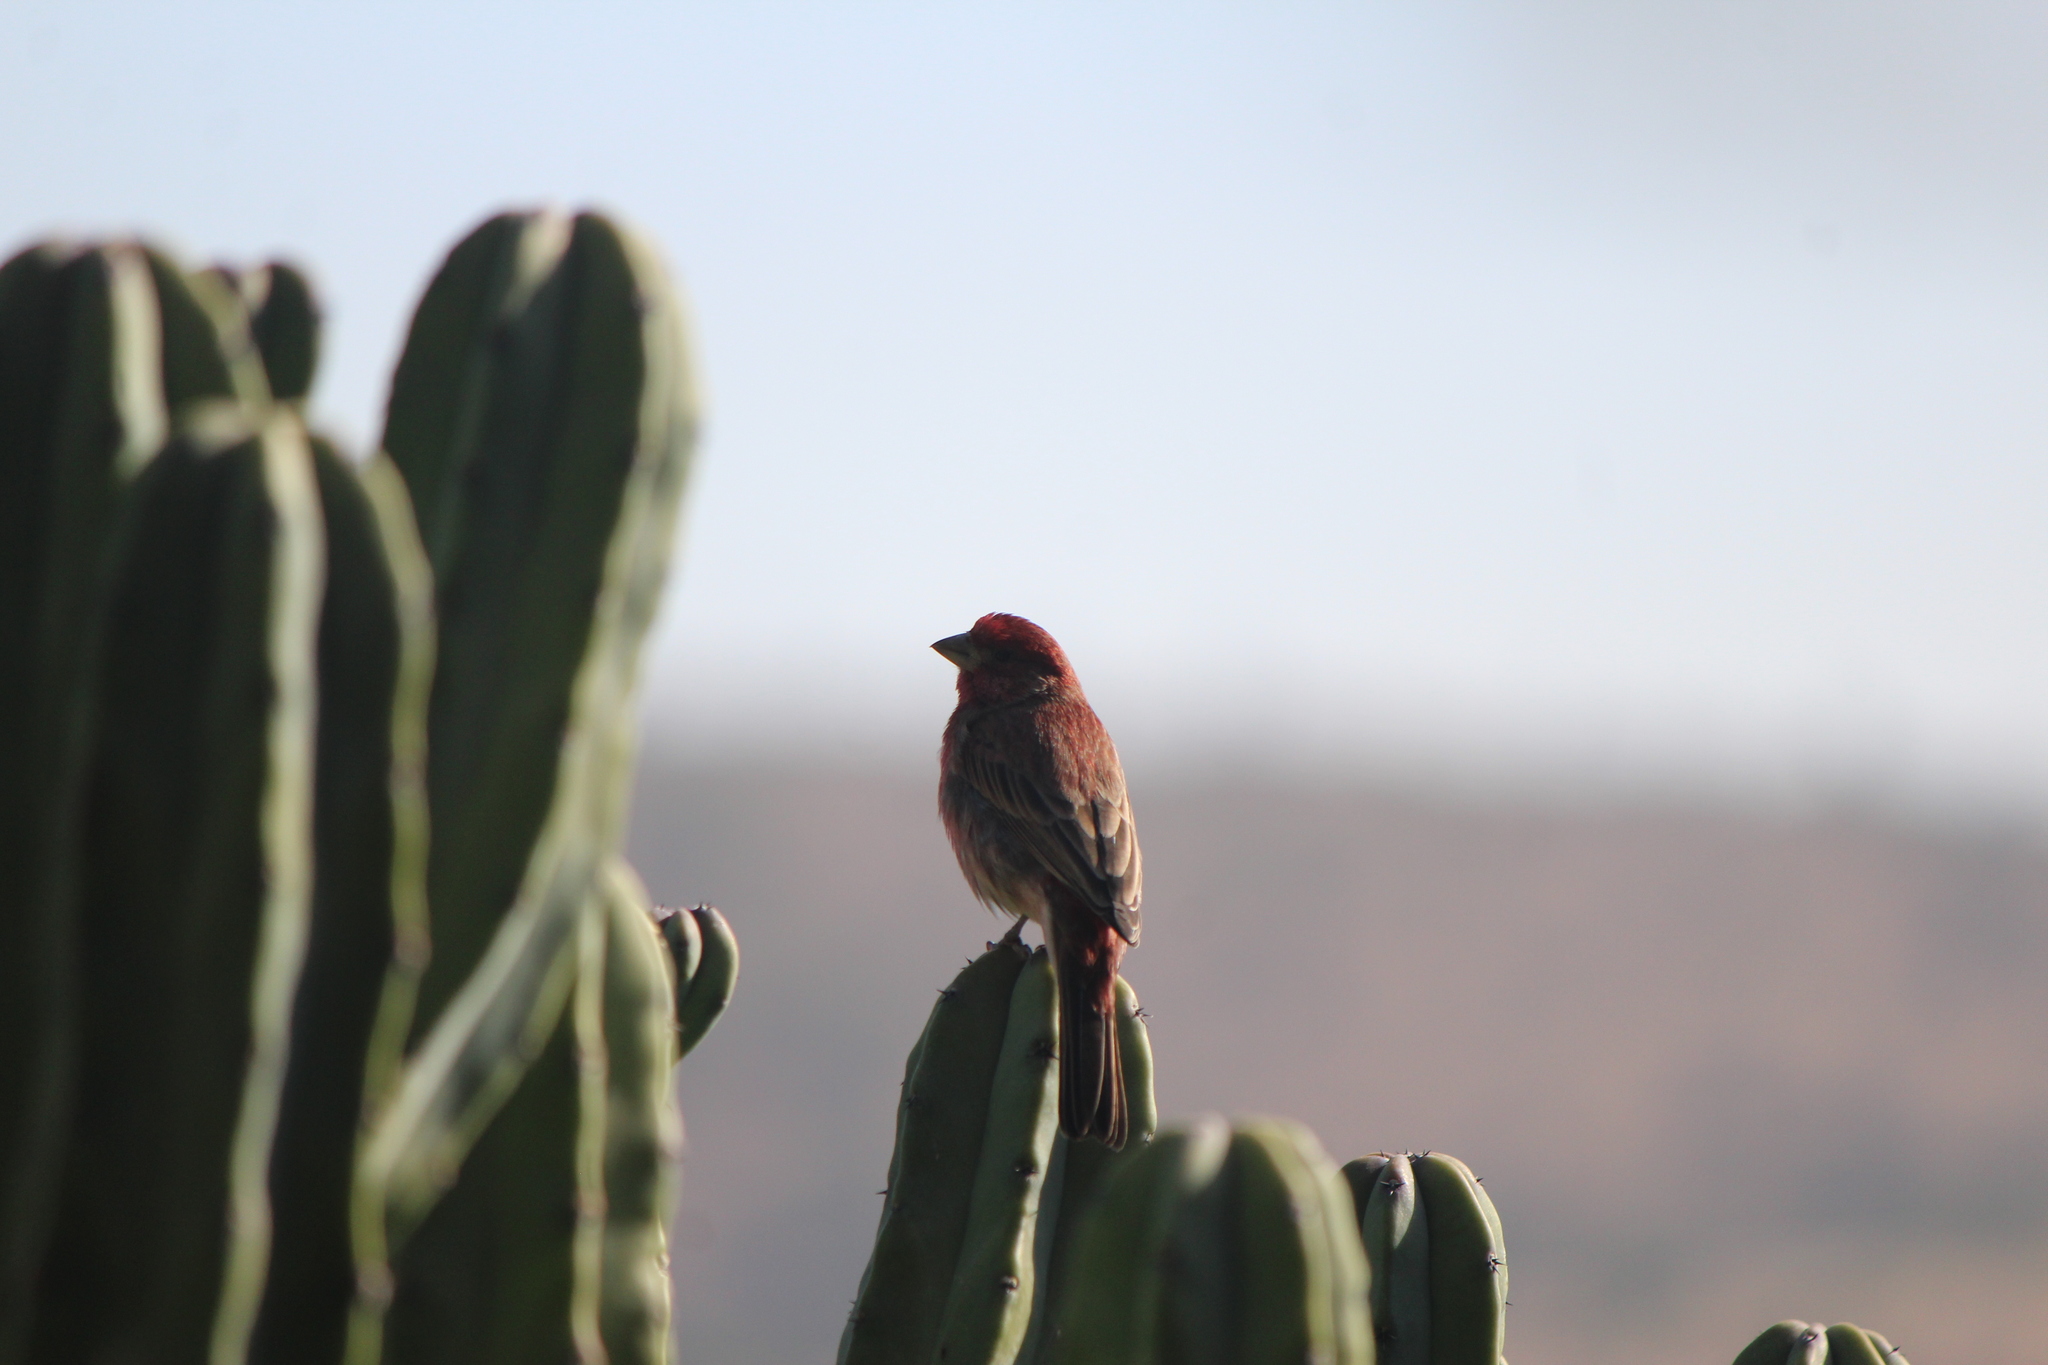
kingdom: Animalia
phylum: Chordata
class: Aves
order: Passeriformes
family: Fringillidae
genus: Haemorhous
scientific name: Haemorhous mexicanus
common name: House finch
